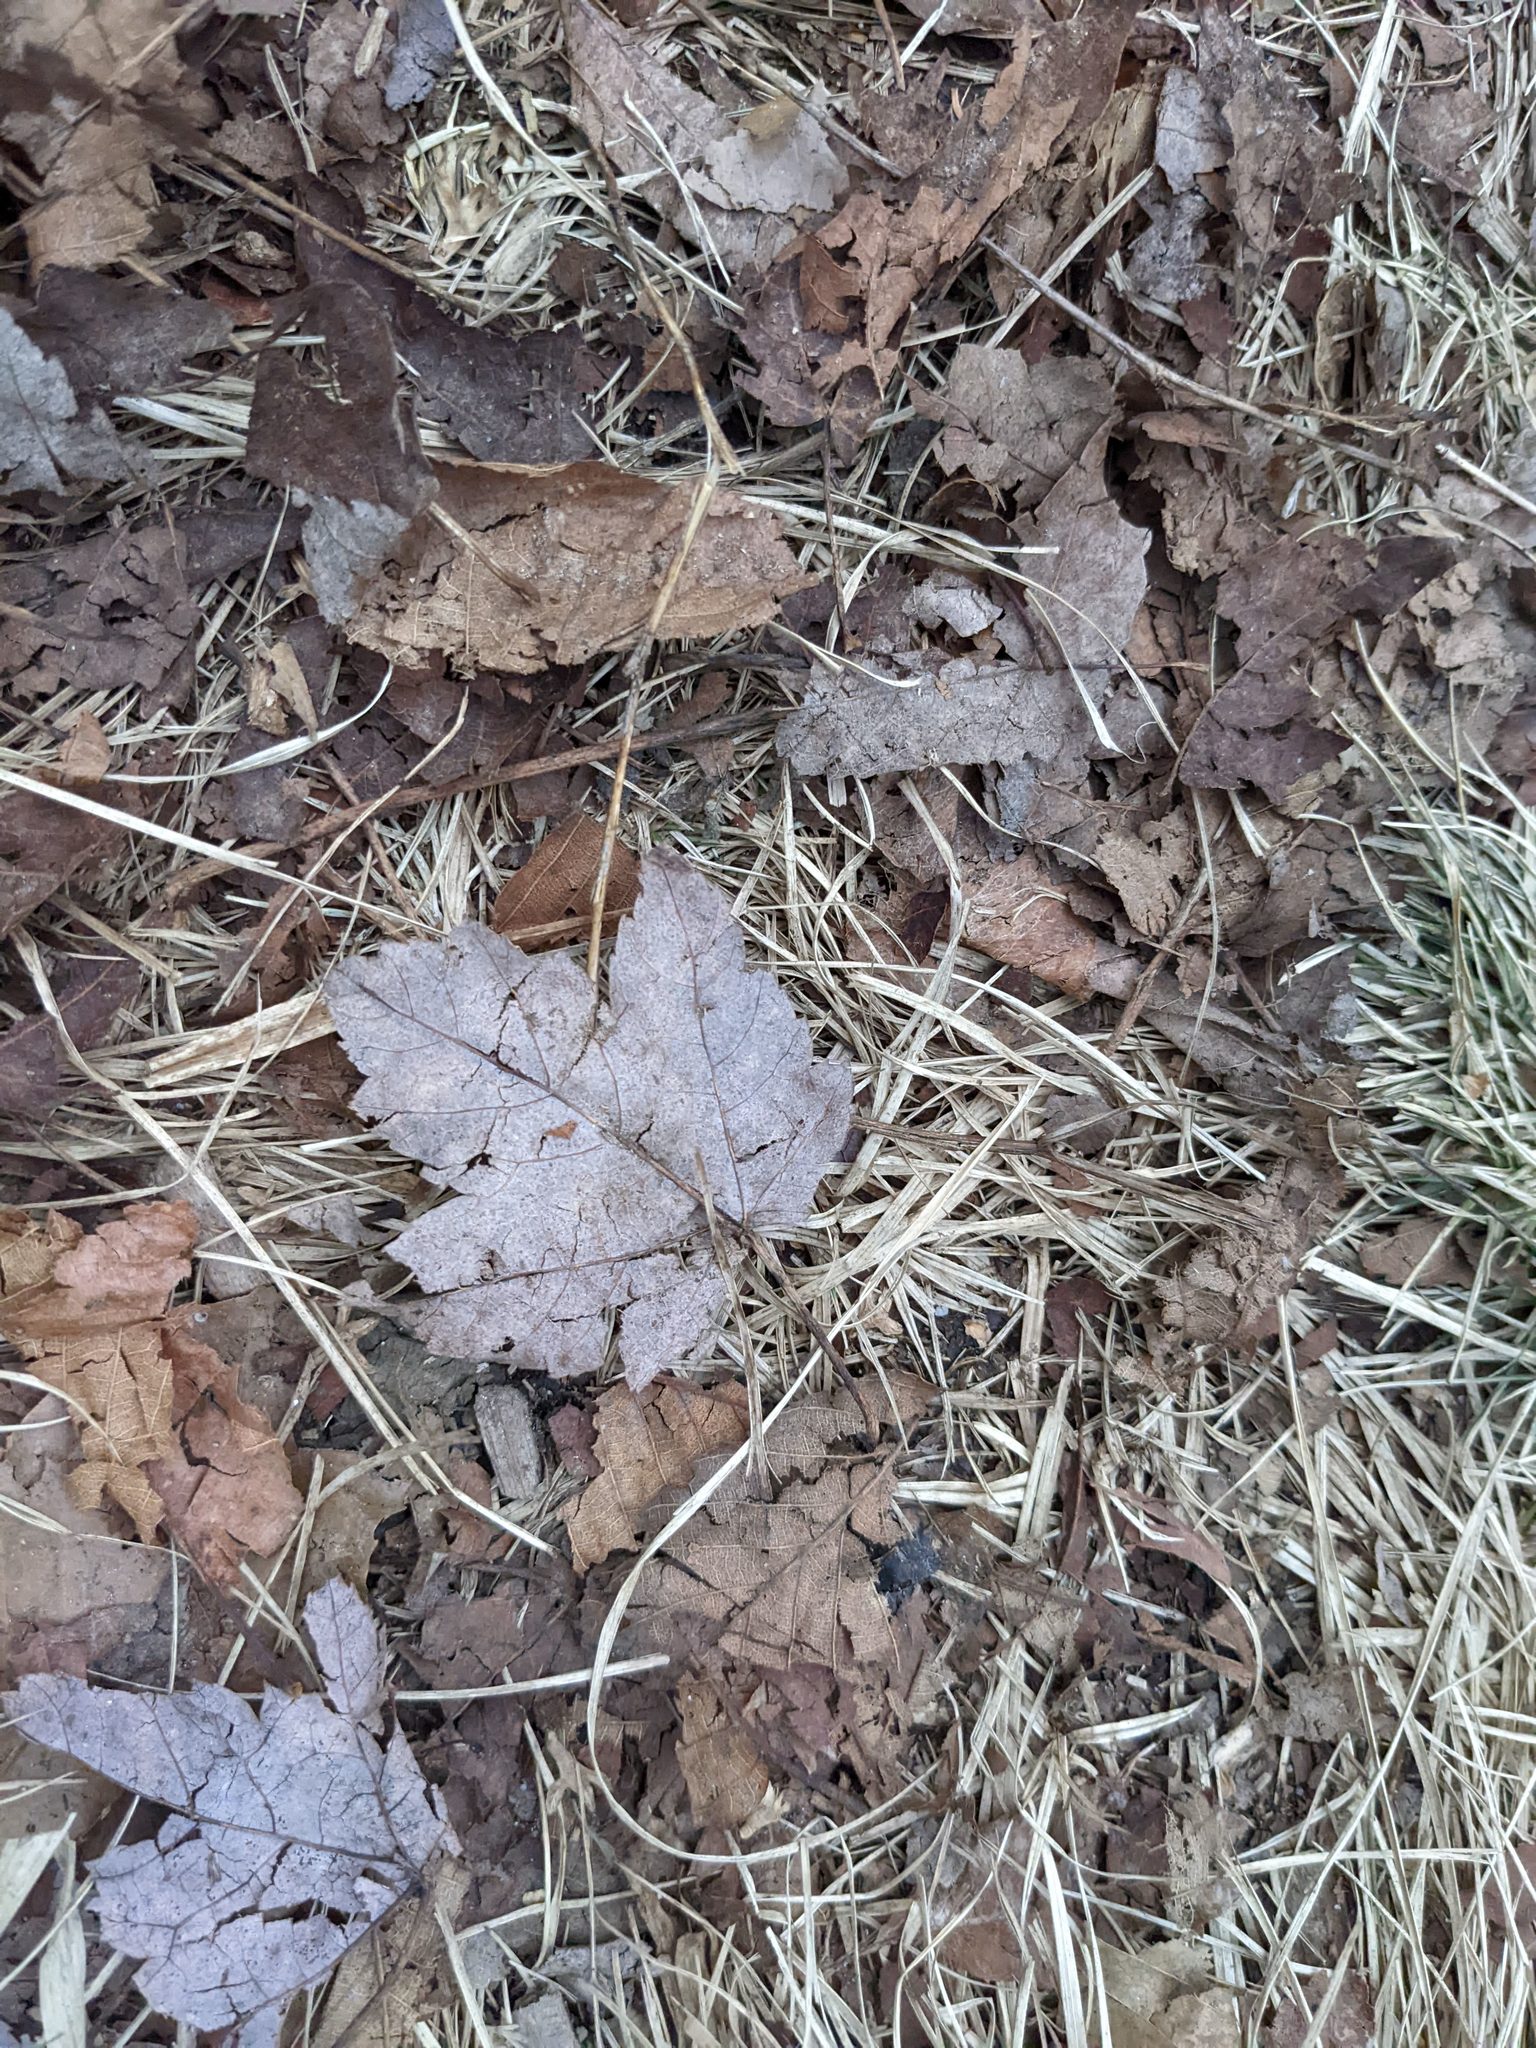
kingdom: Plantae
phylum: Tracheophyta
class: Magnoliopsida
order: Sapindales
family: Sapindaceae
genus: Acer
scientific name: Acer rubrum
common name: Red maple
